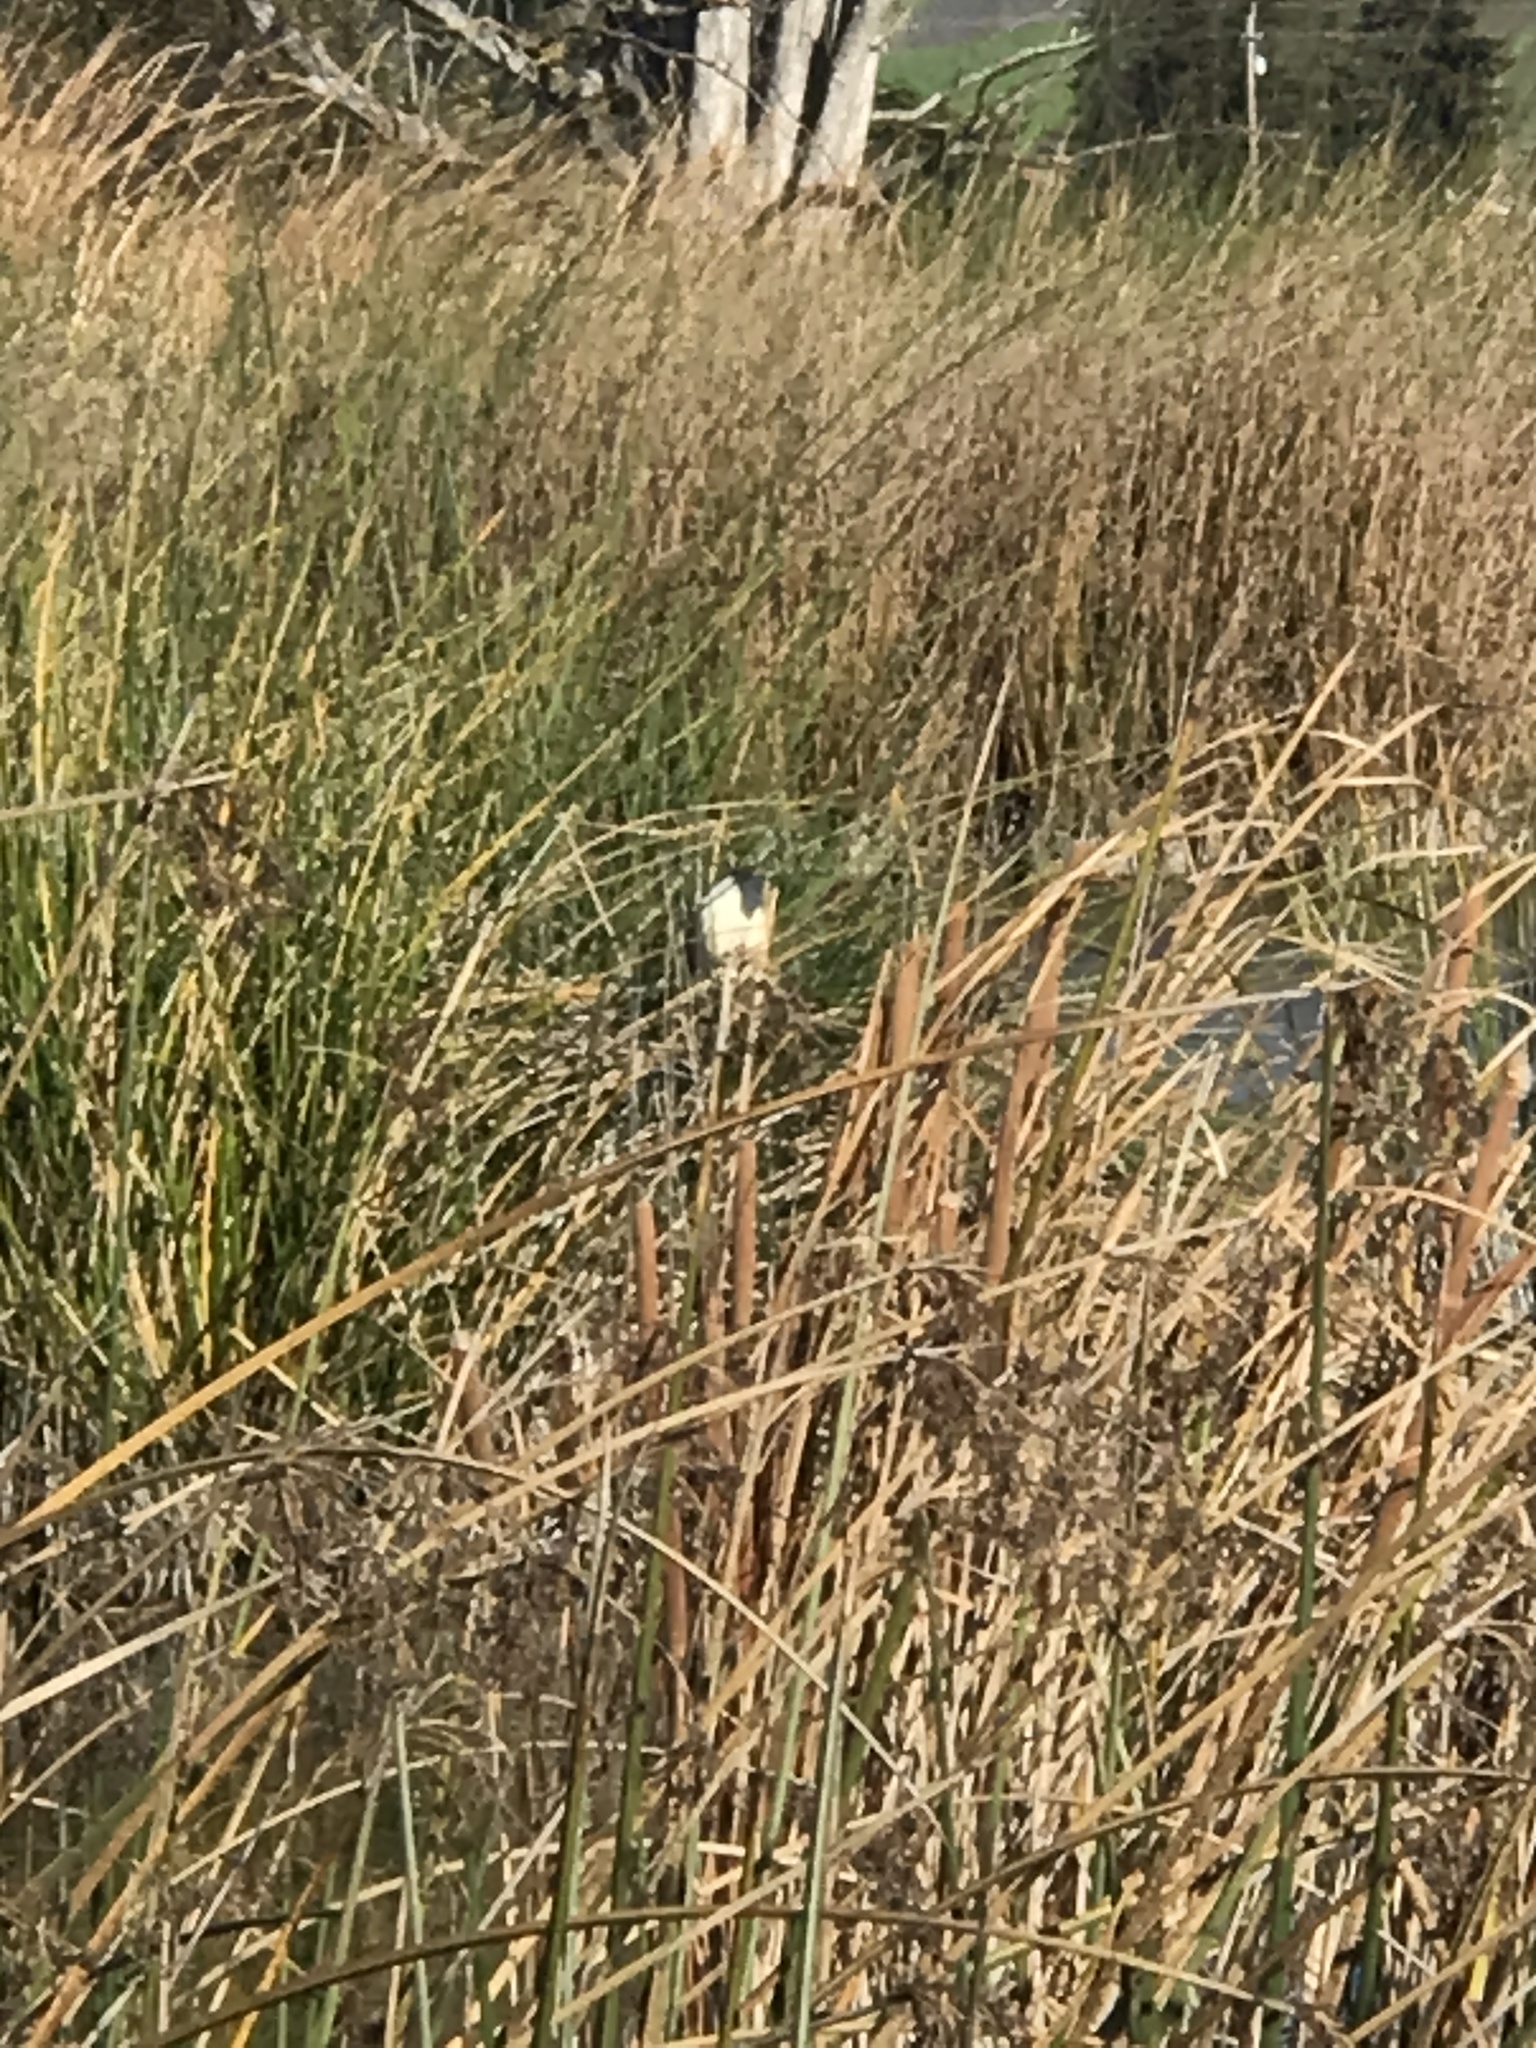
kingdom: Animalia
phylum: Chordata
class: Aves
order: Pelecaniformes
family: Ardeidae
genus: Nycticorax
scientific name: Nycticorax nycticorax
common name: Black-crowned night heron
